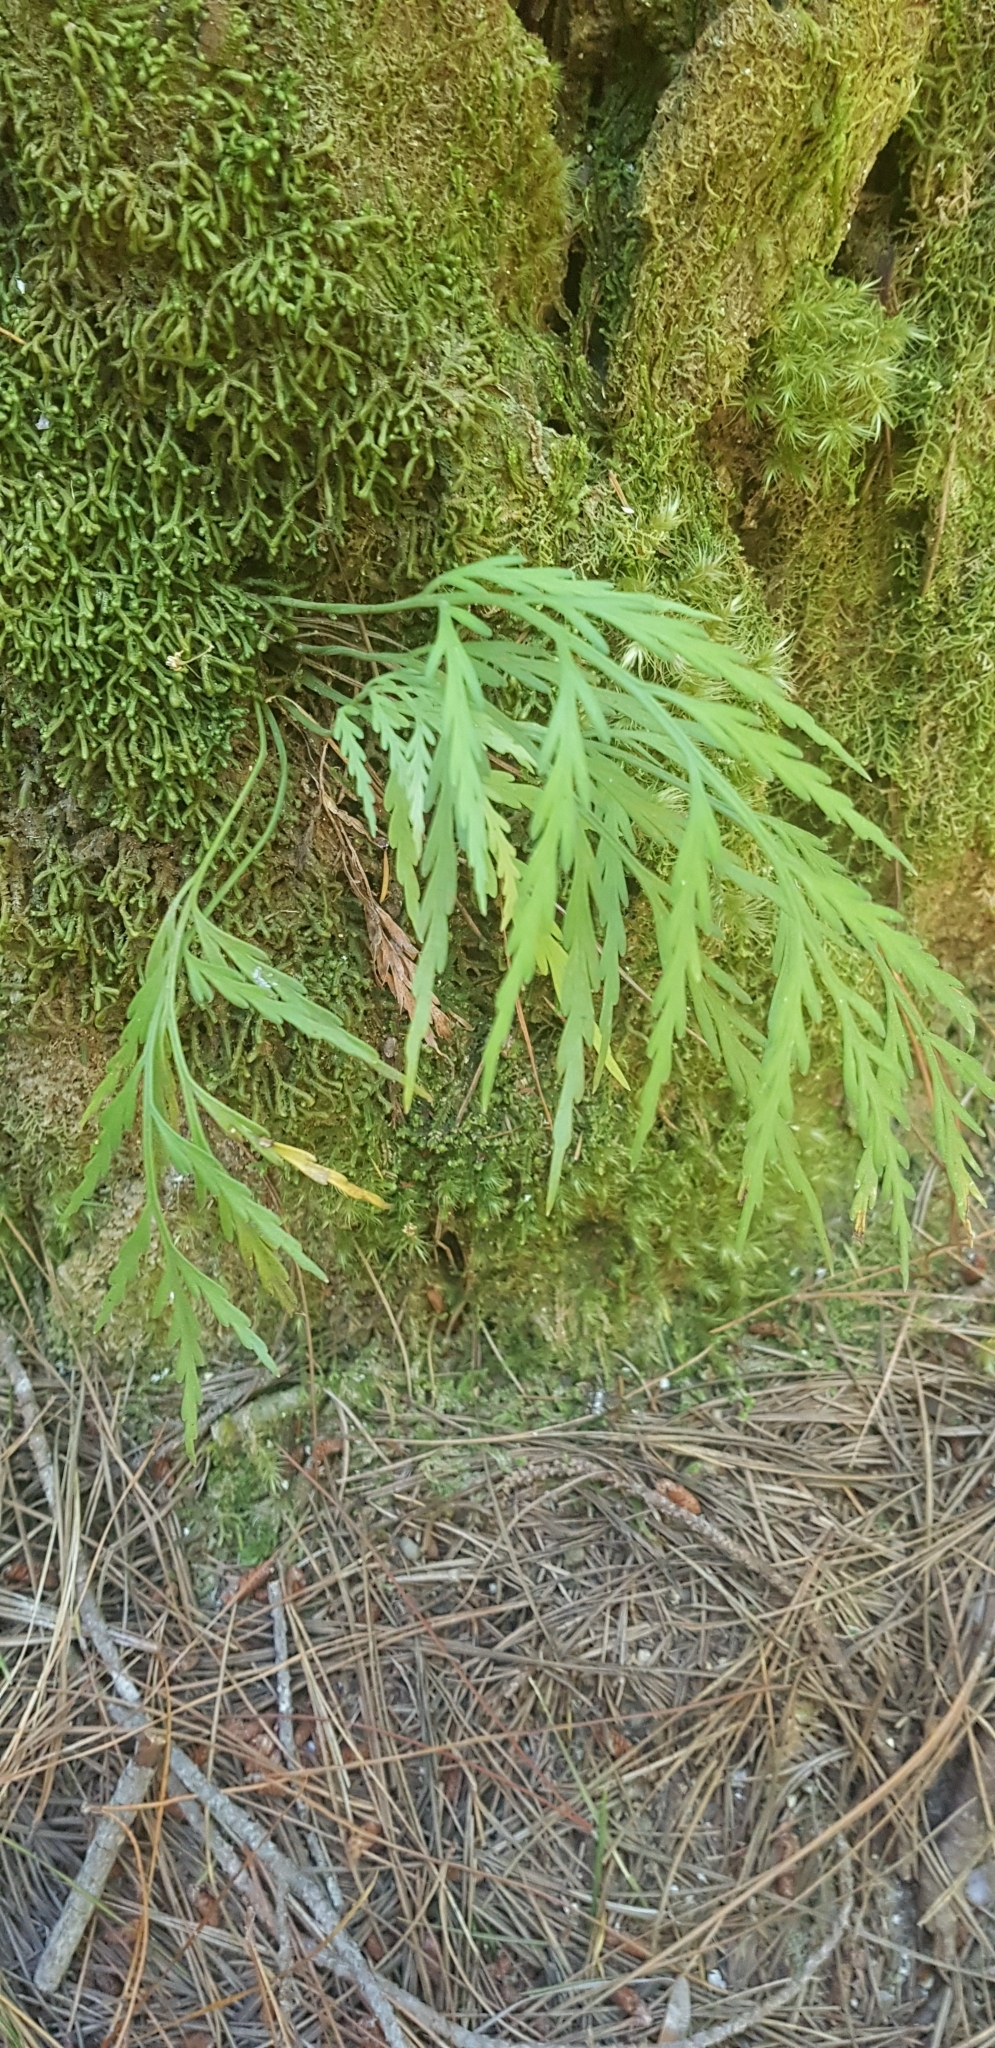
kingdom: Plantae
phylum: Tracheophyta
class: Polypodiopsida
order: Polypodiales
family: Aspleniaceae
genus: Asplenium
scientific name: Asplenium flaccidum
